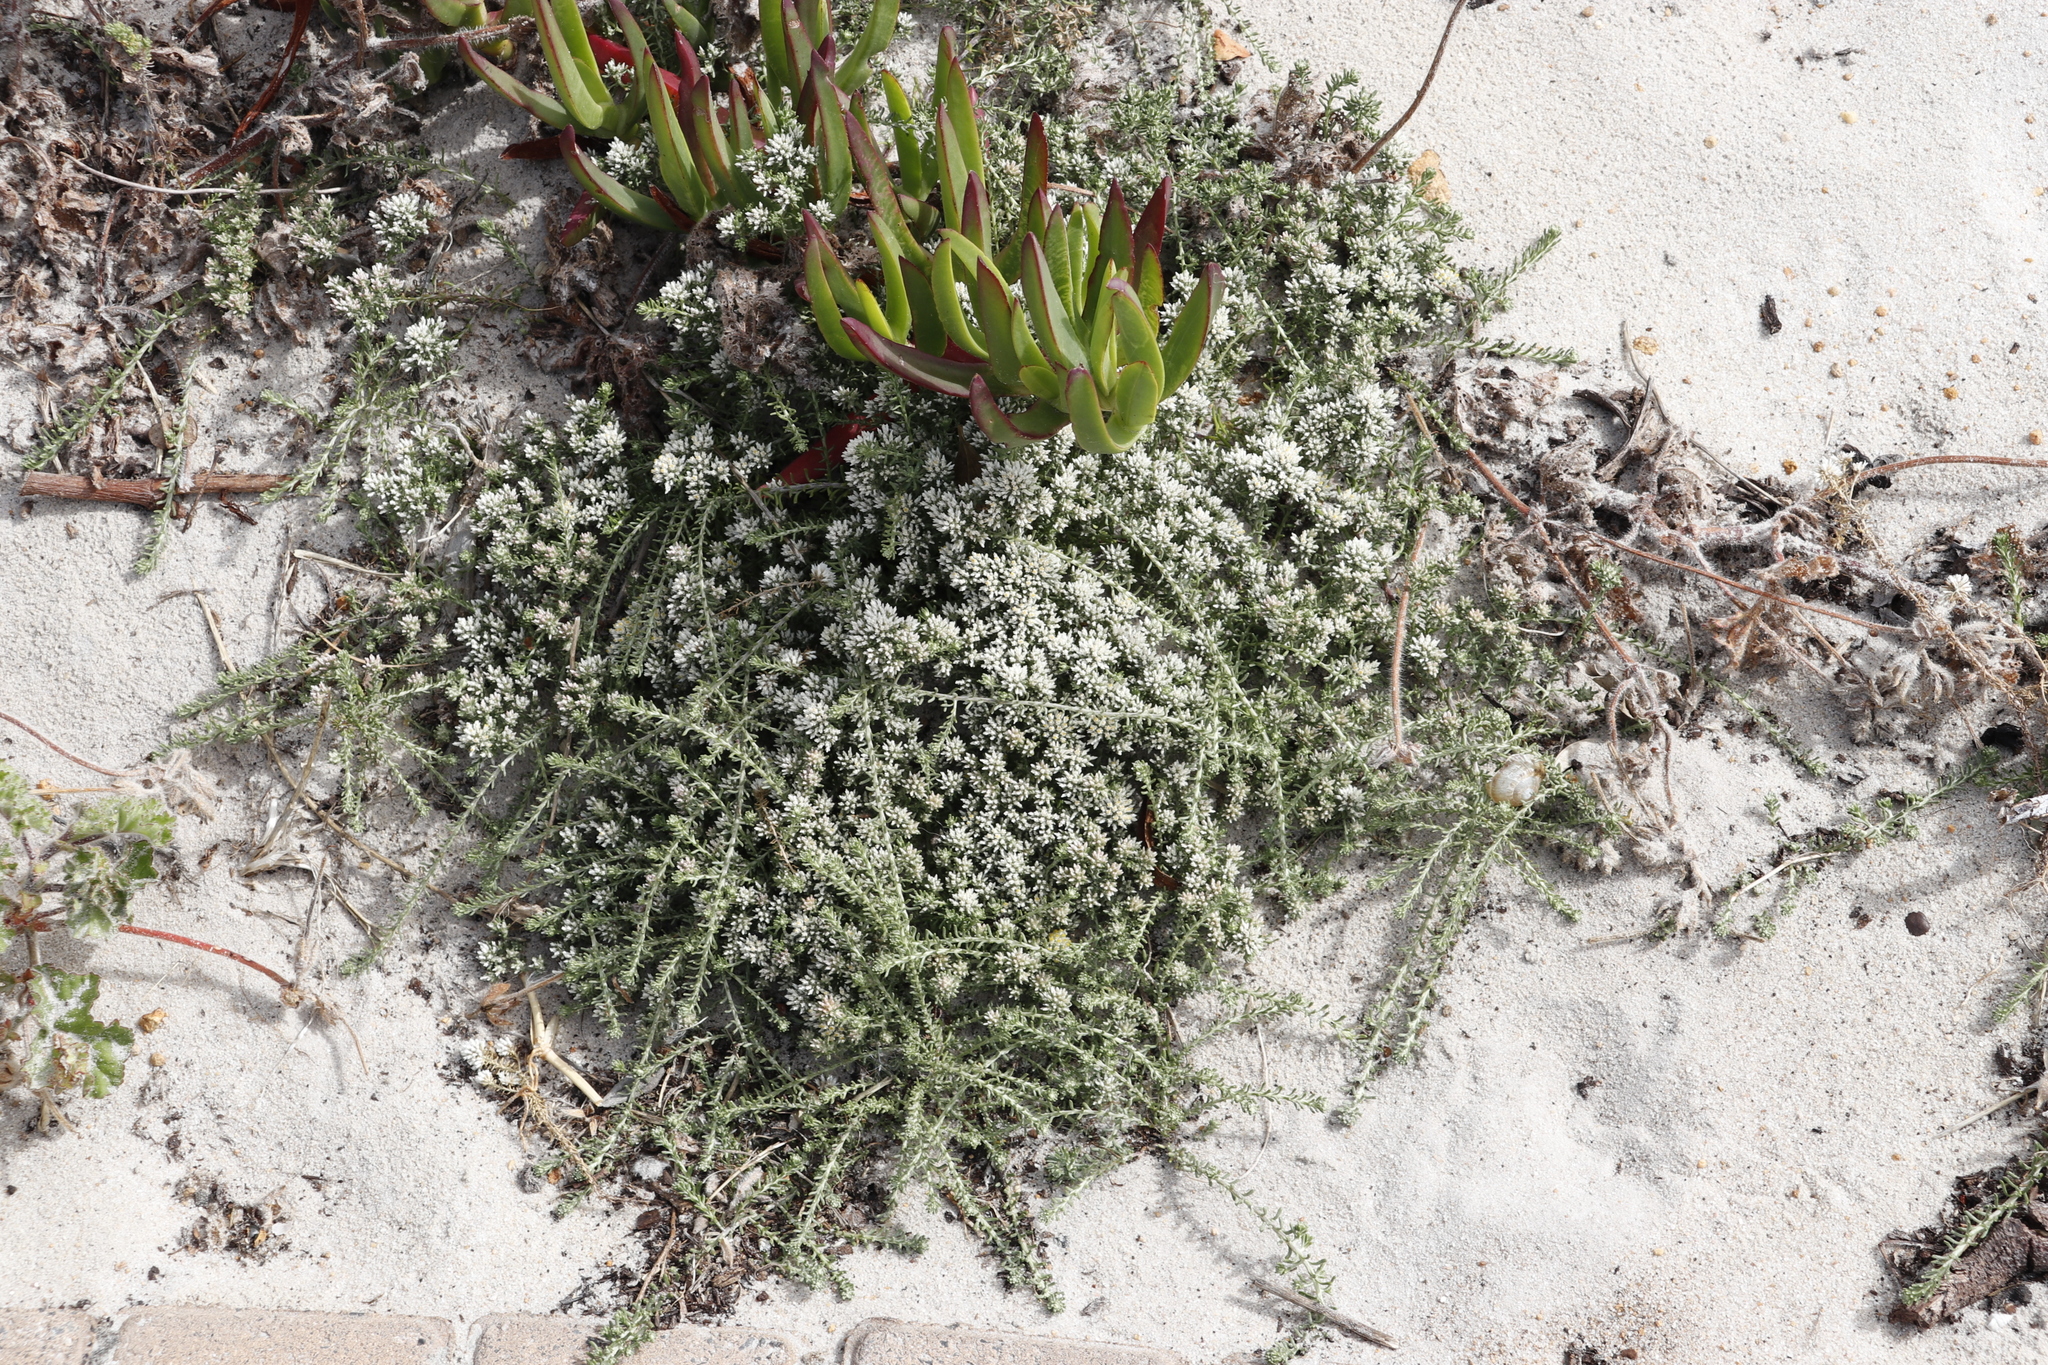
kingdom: Plantae
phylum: Tracheophyta
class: Magnoliopsida
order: Asterales
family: Asteraceae
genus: Helichrysum
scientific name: Helichrysum niveum
